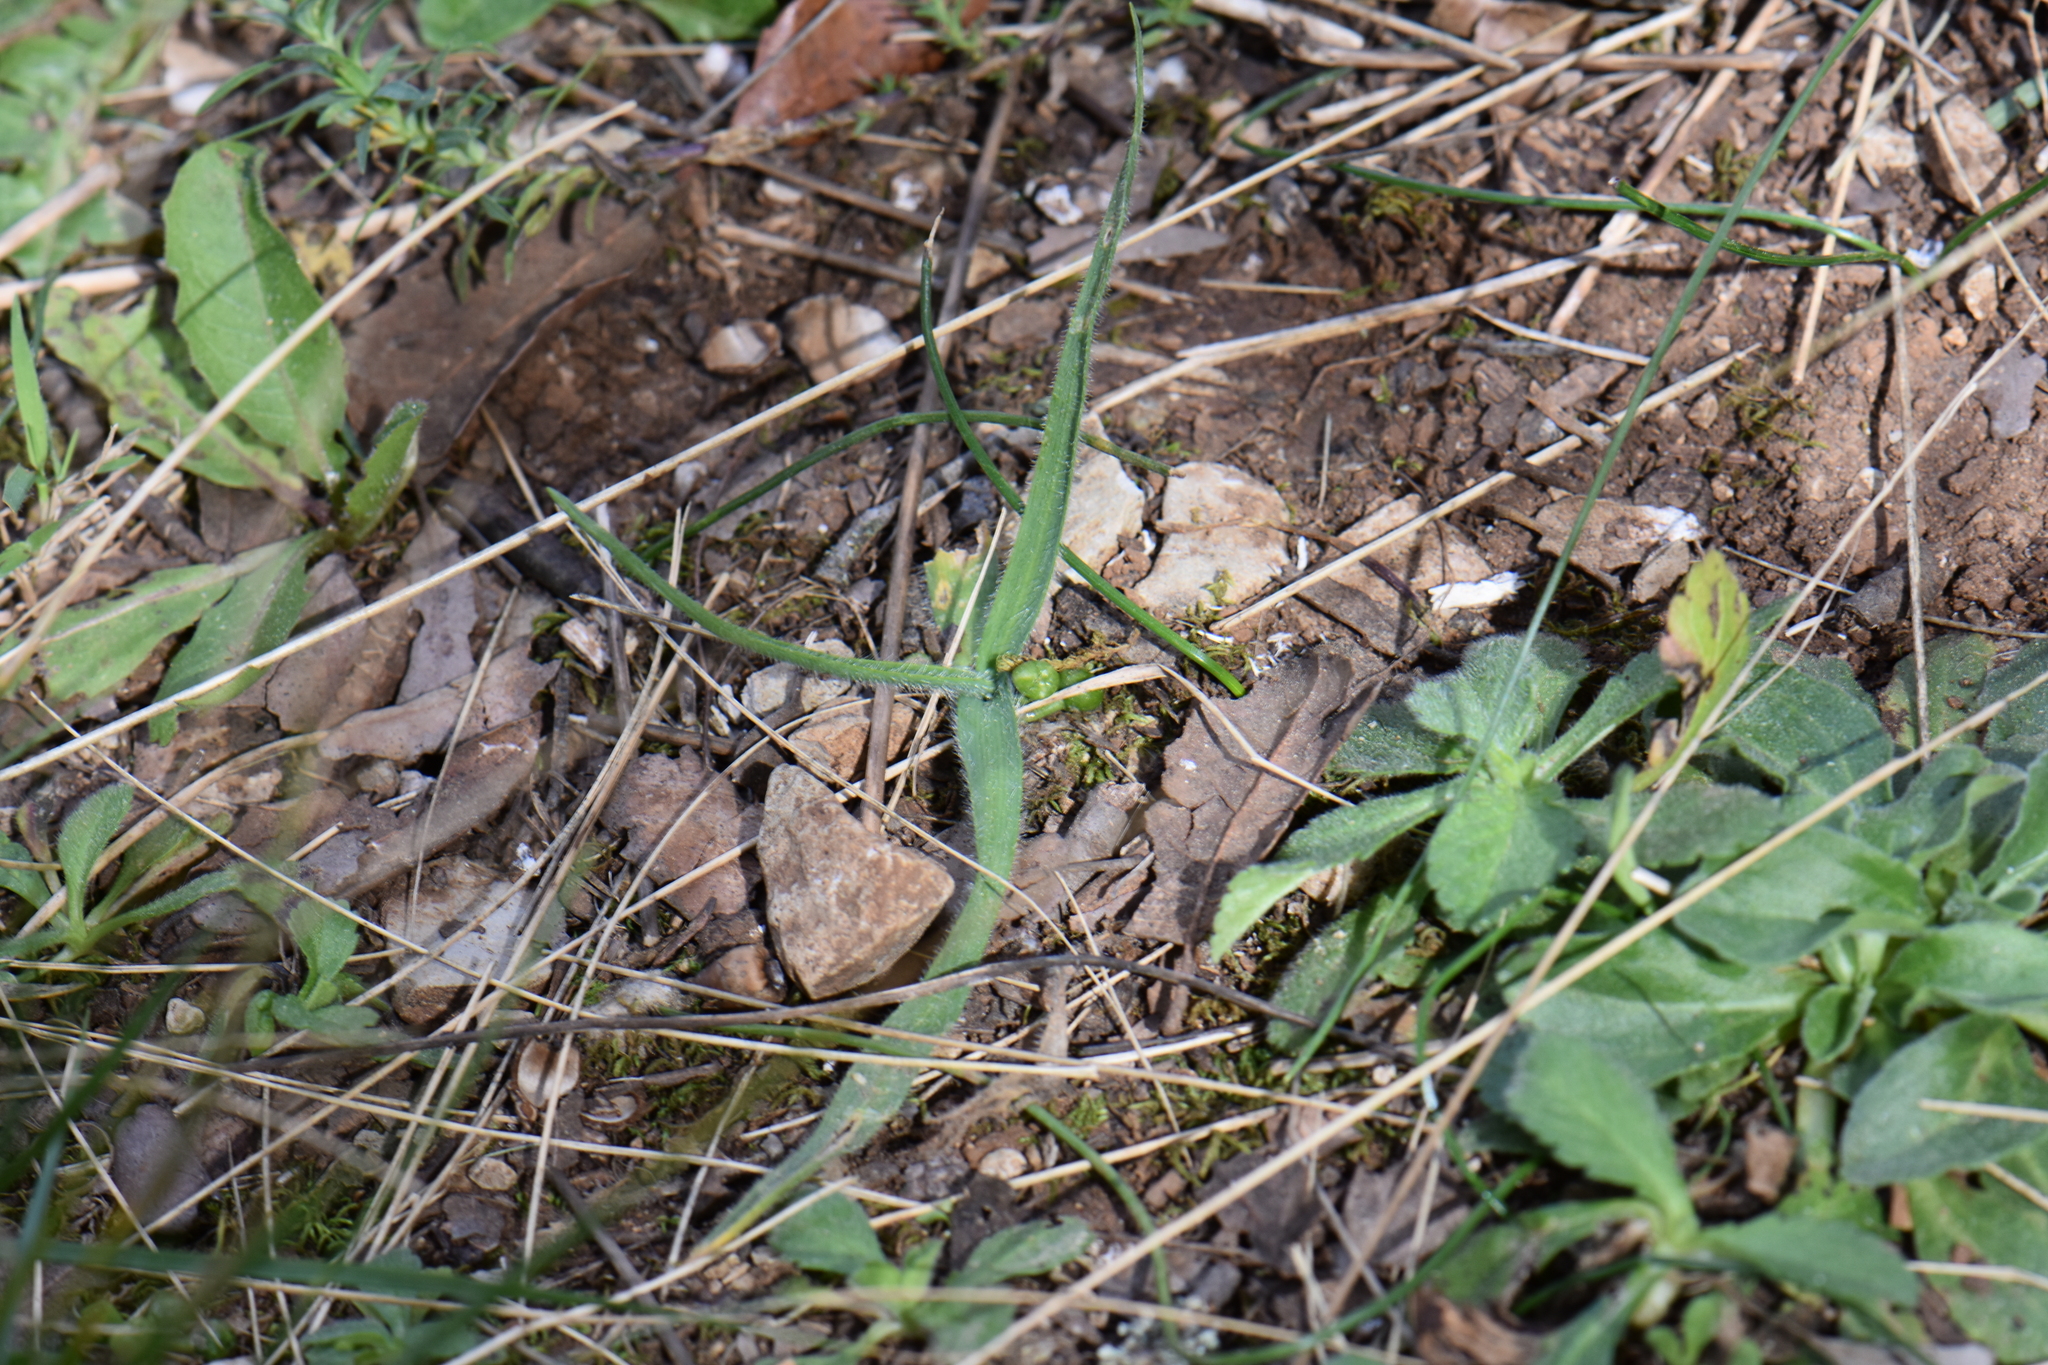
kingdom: Plantae
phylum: Tracheophyta
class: Liliopsida
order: Asparagales
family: Amaryllidaceae
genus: Allium
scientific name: Allium chamaemoly
